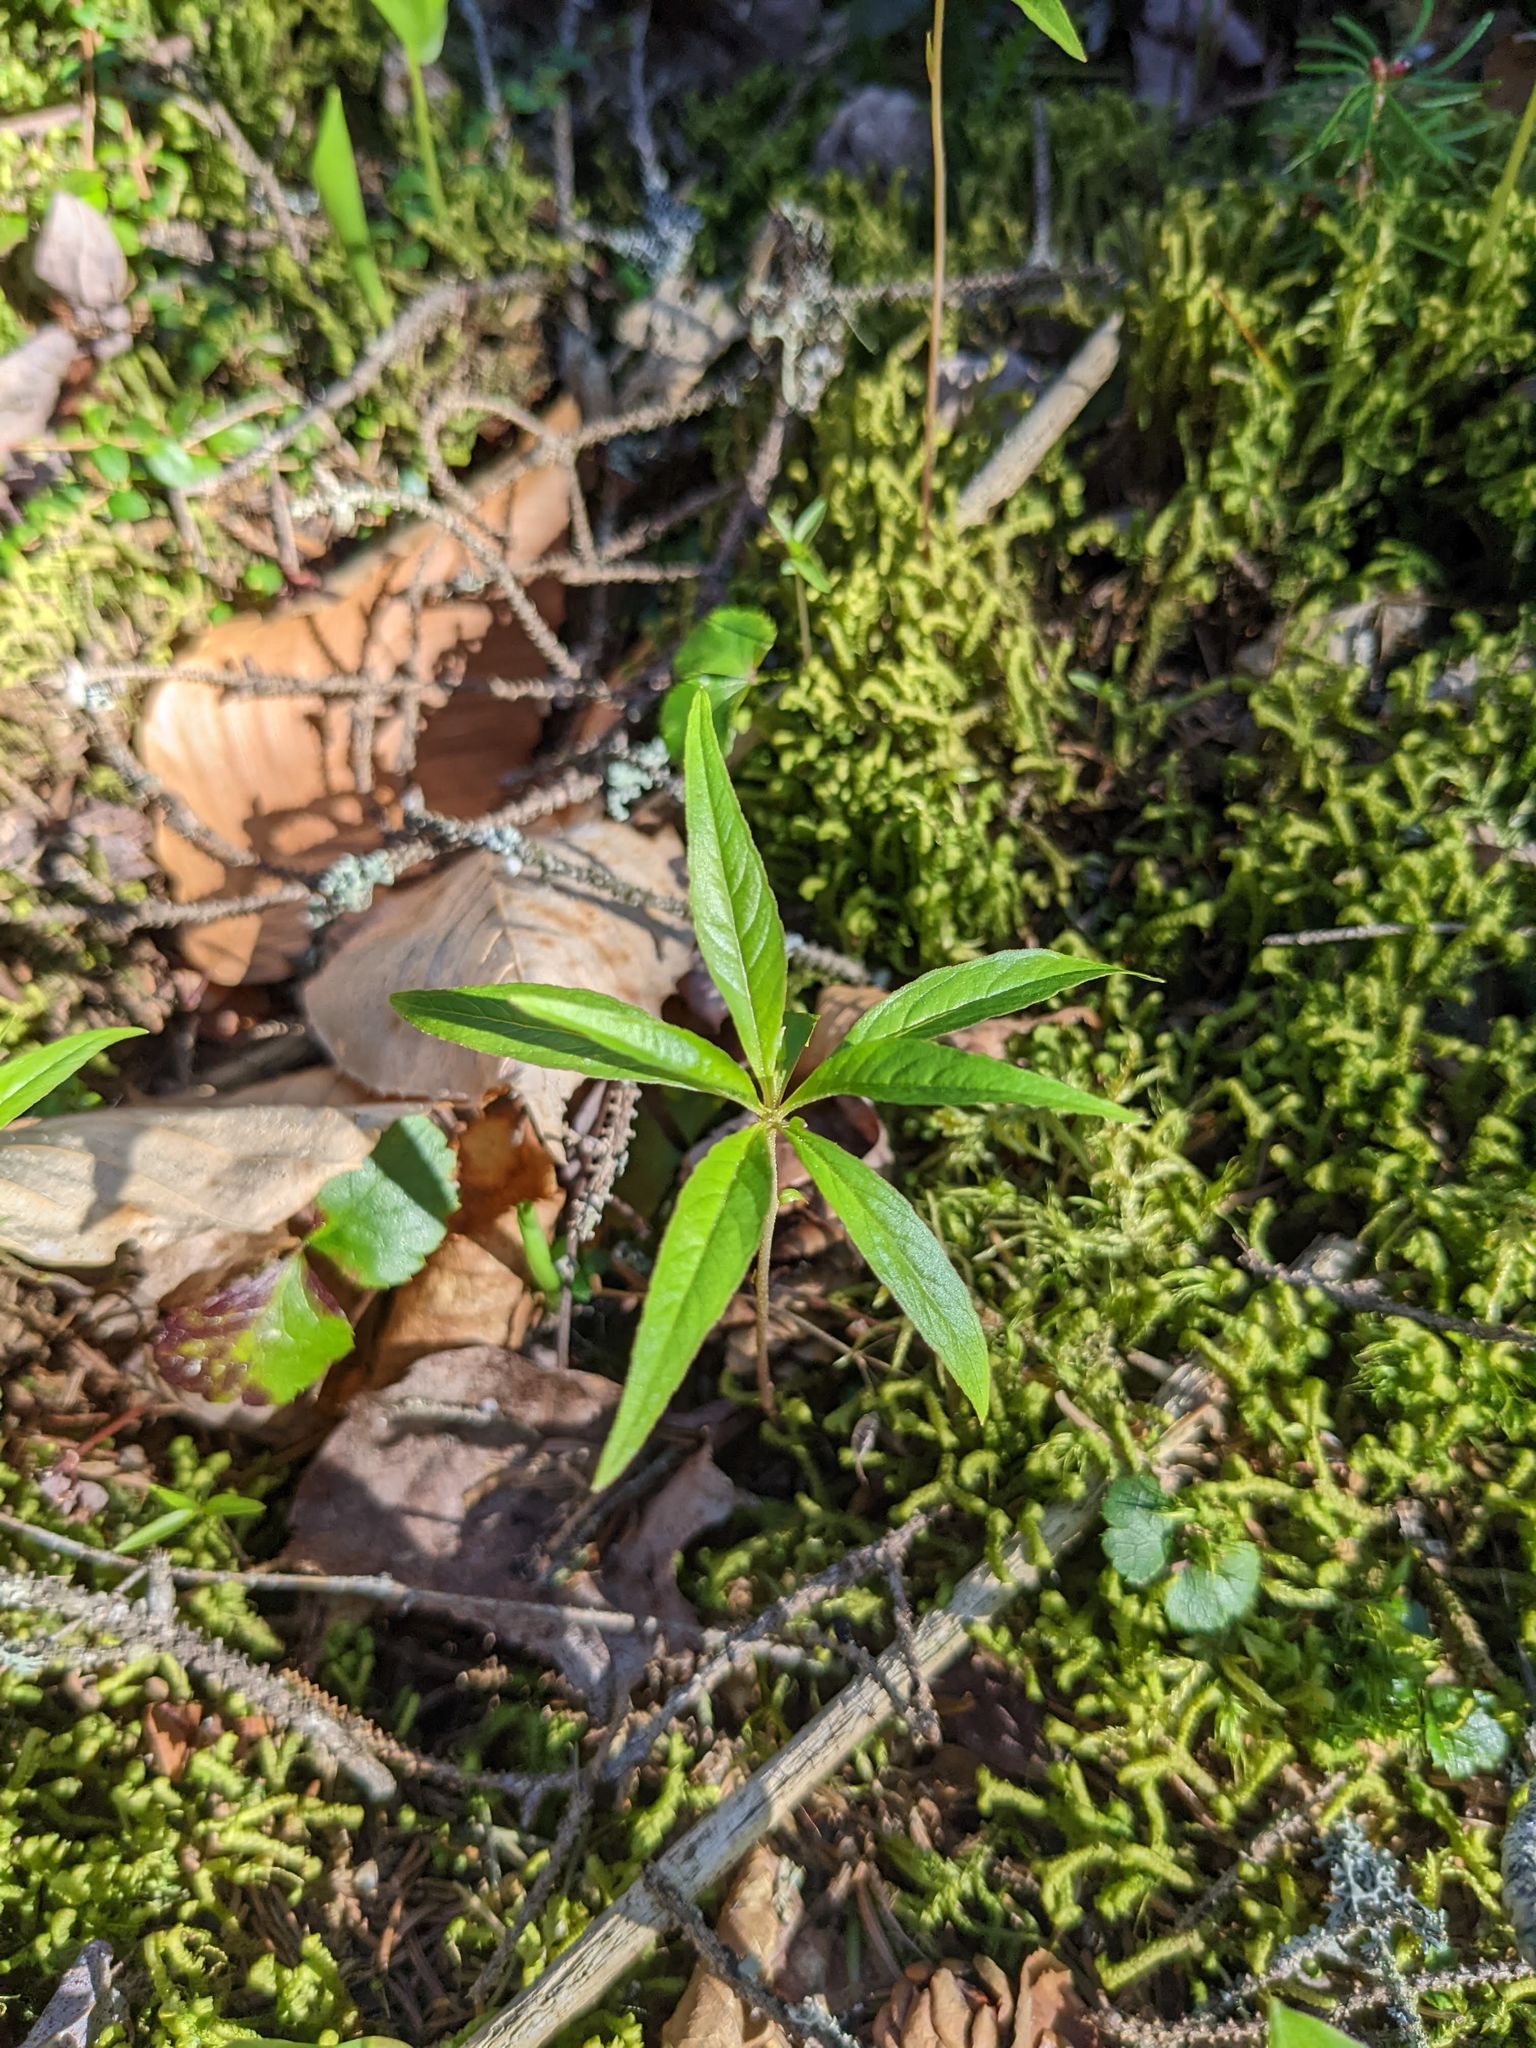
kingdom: Plantae
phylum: Tracheophyta
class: Magnoliopsida
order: Ericales
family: Primulaceae
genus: Lysimachia
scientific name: Lysimachia borealis
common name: American starflower
